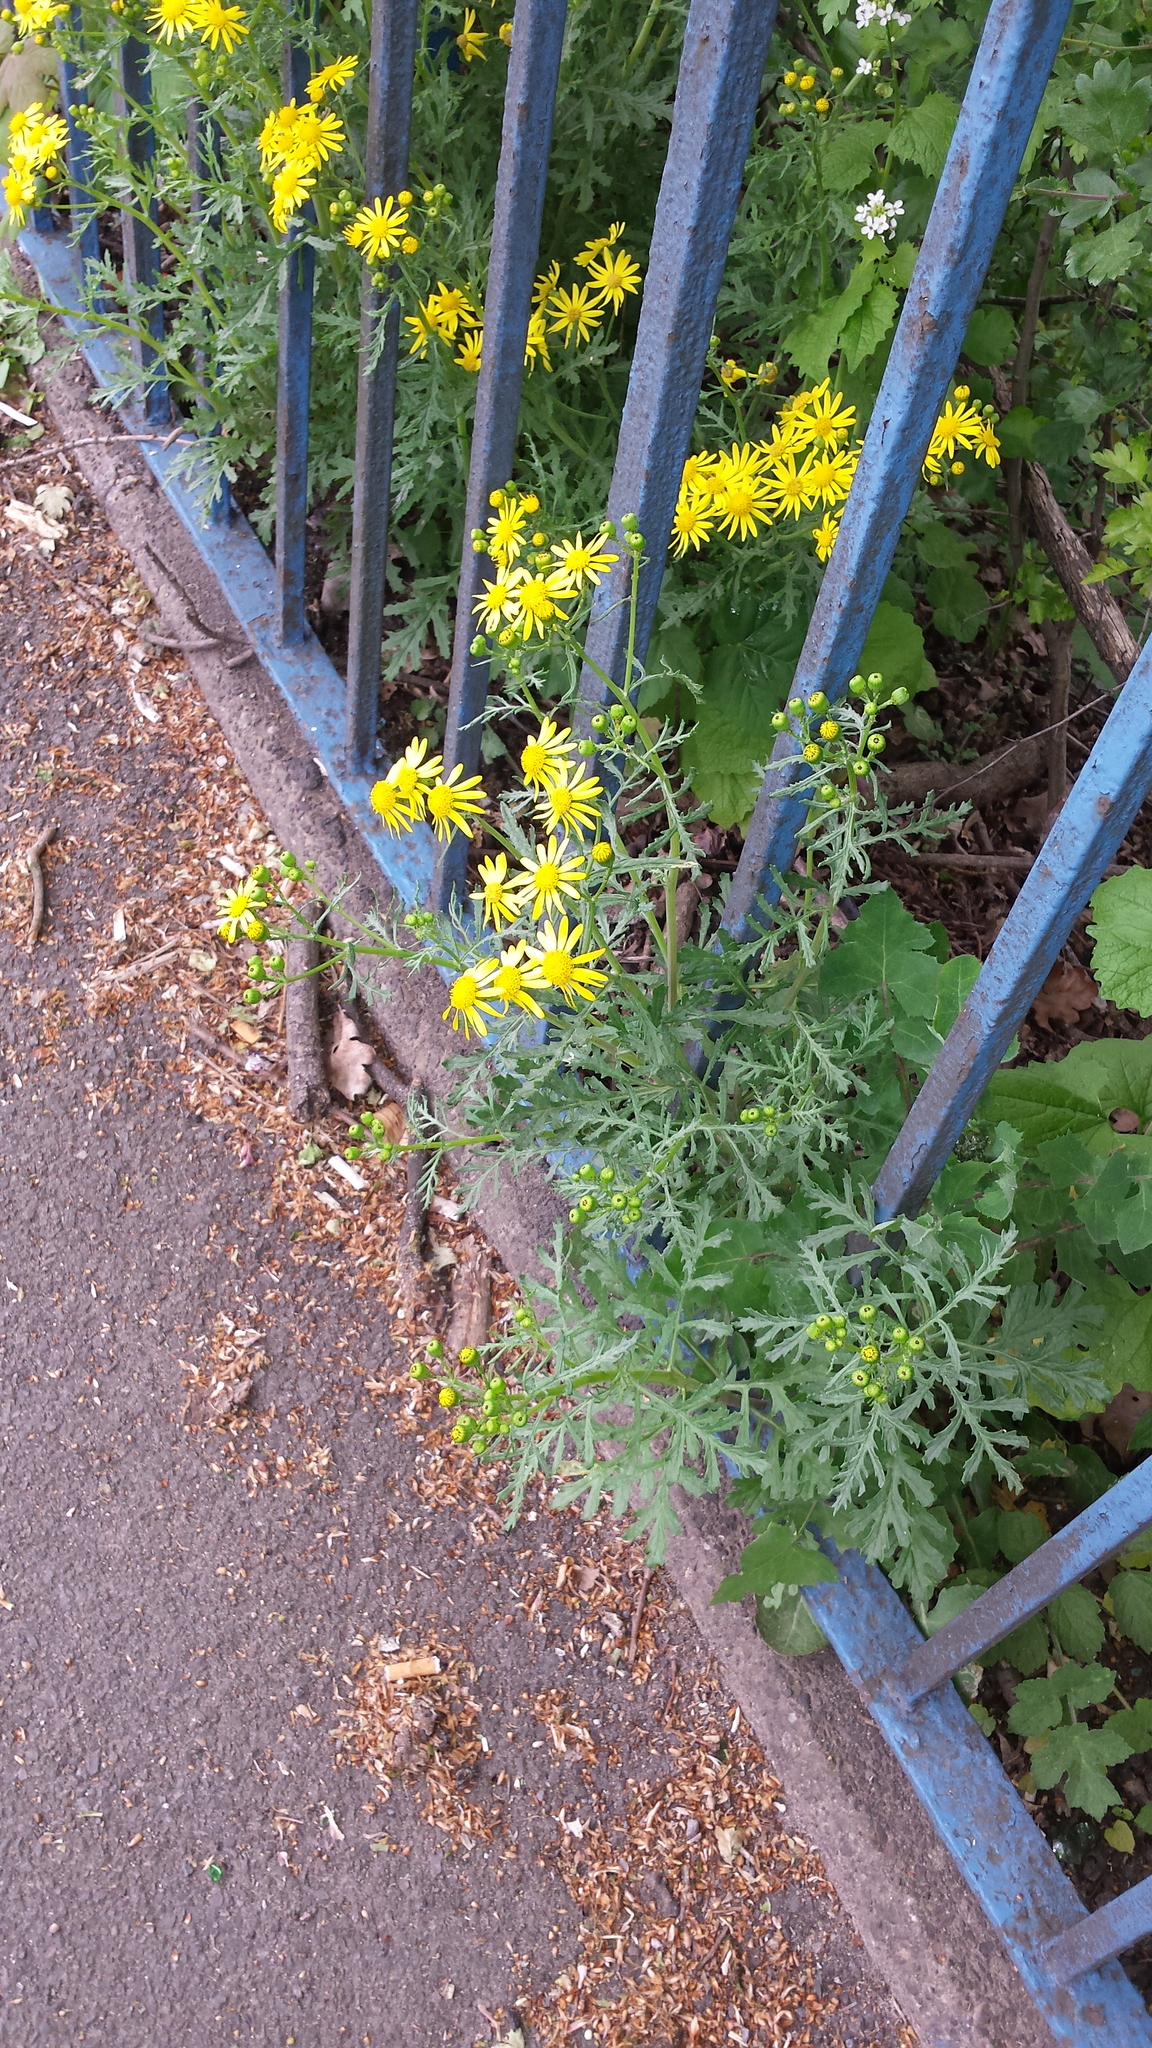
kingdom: Plantae
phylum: Tracheophyta
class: Magnoliopsida
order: Asterales
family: Asteraceae
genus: Senecio
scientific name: Senecio squalidus
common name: Oxford ragwort
